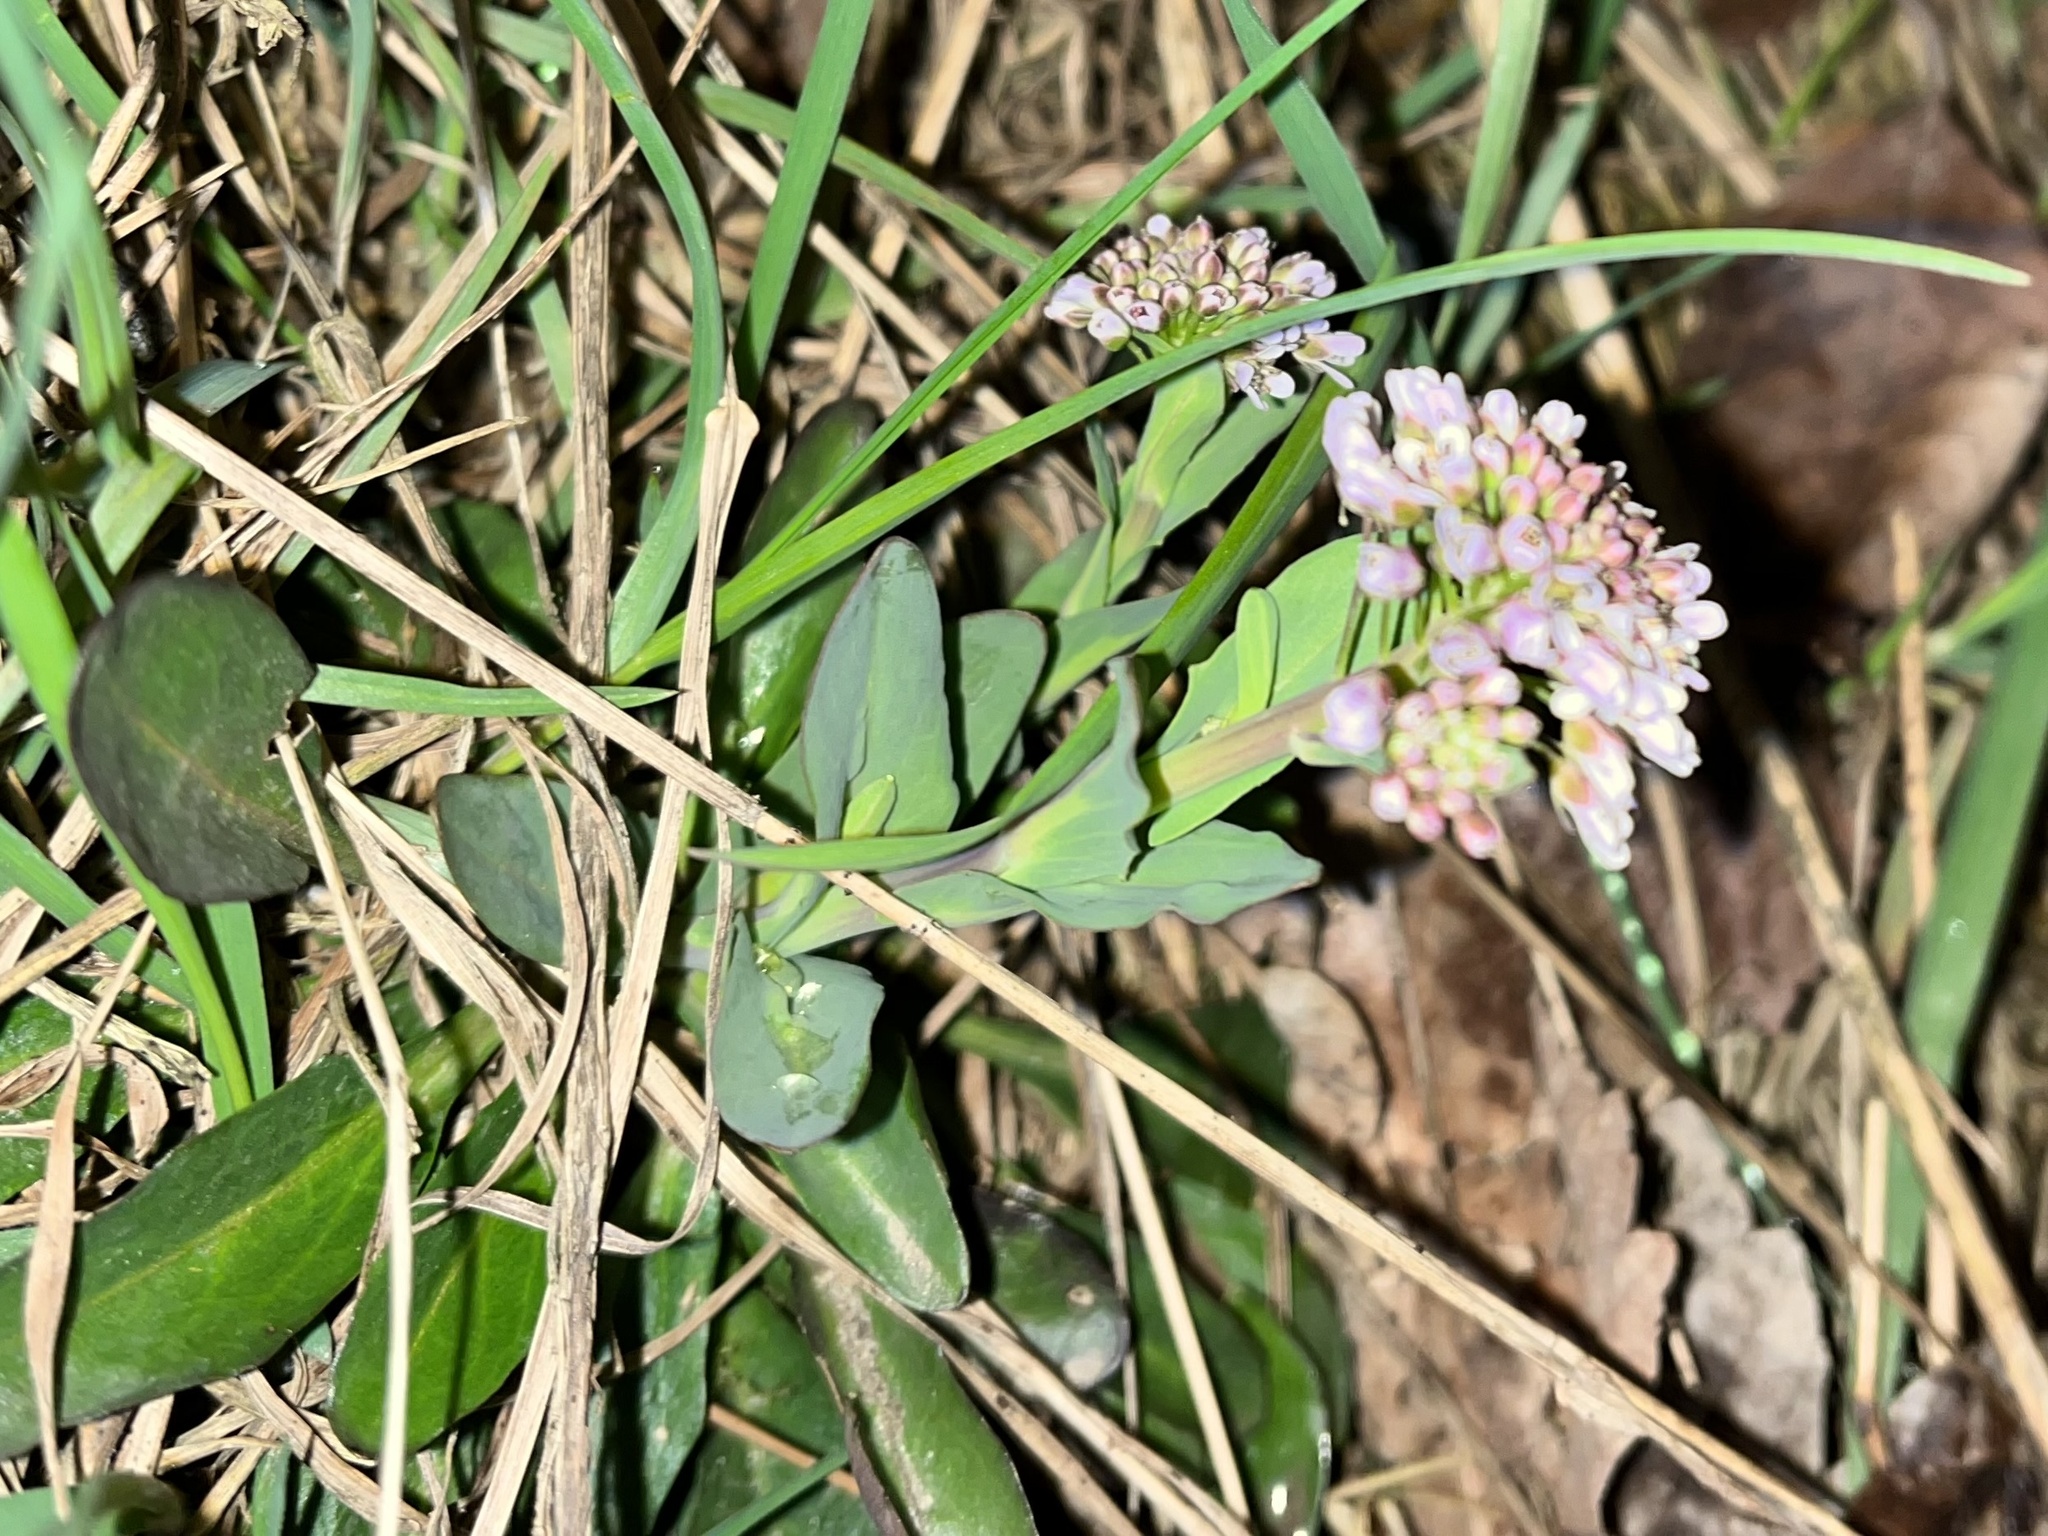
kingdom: Plantae
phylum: Tracheophyta
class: Magnoliopsida
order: Brassicales
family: Brassicaceae
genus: Noccaea
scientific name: Noccaea caerulescens
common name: Alpine pennycress
